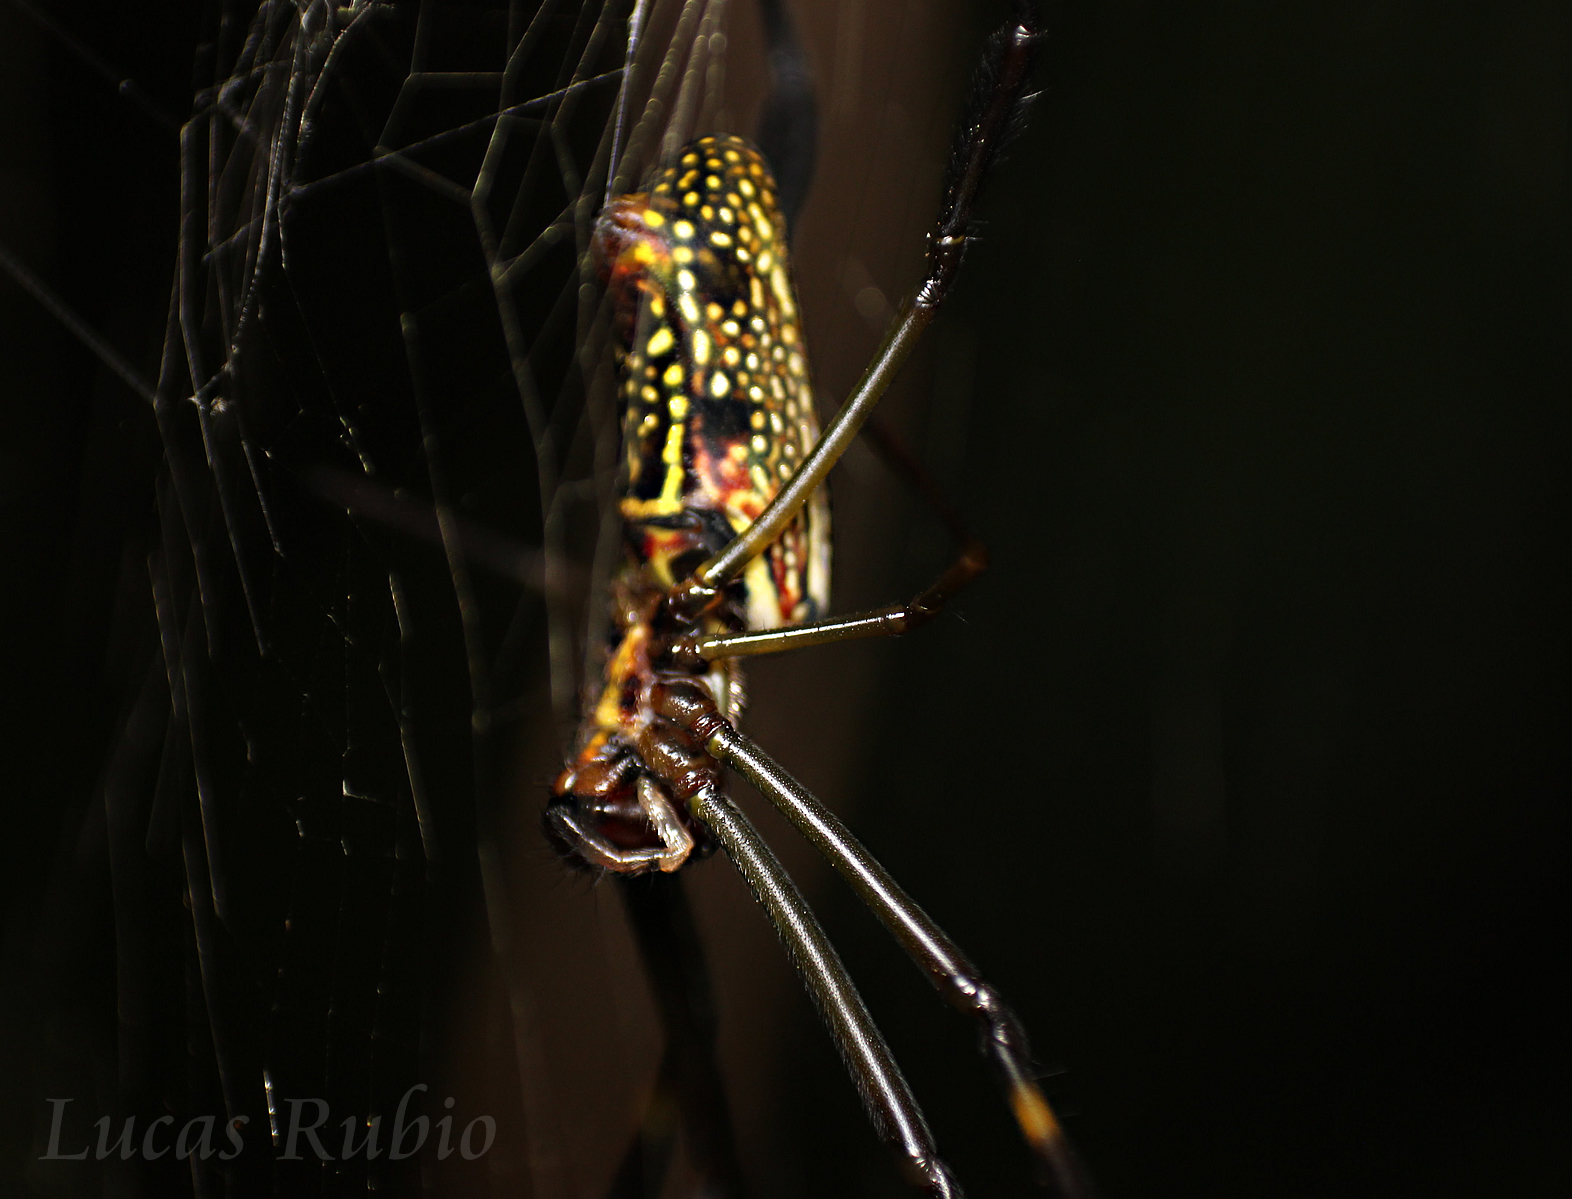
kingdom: Animalia
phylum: Arthropoda
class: Arachnida
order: Araneae
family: Araneidae
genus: Trichonephila
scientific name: Trichonephila clavipes
